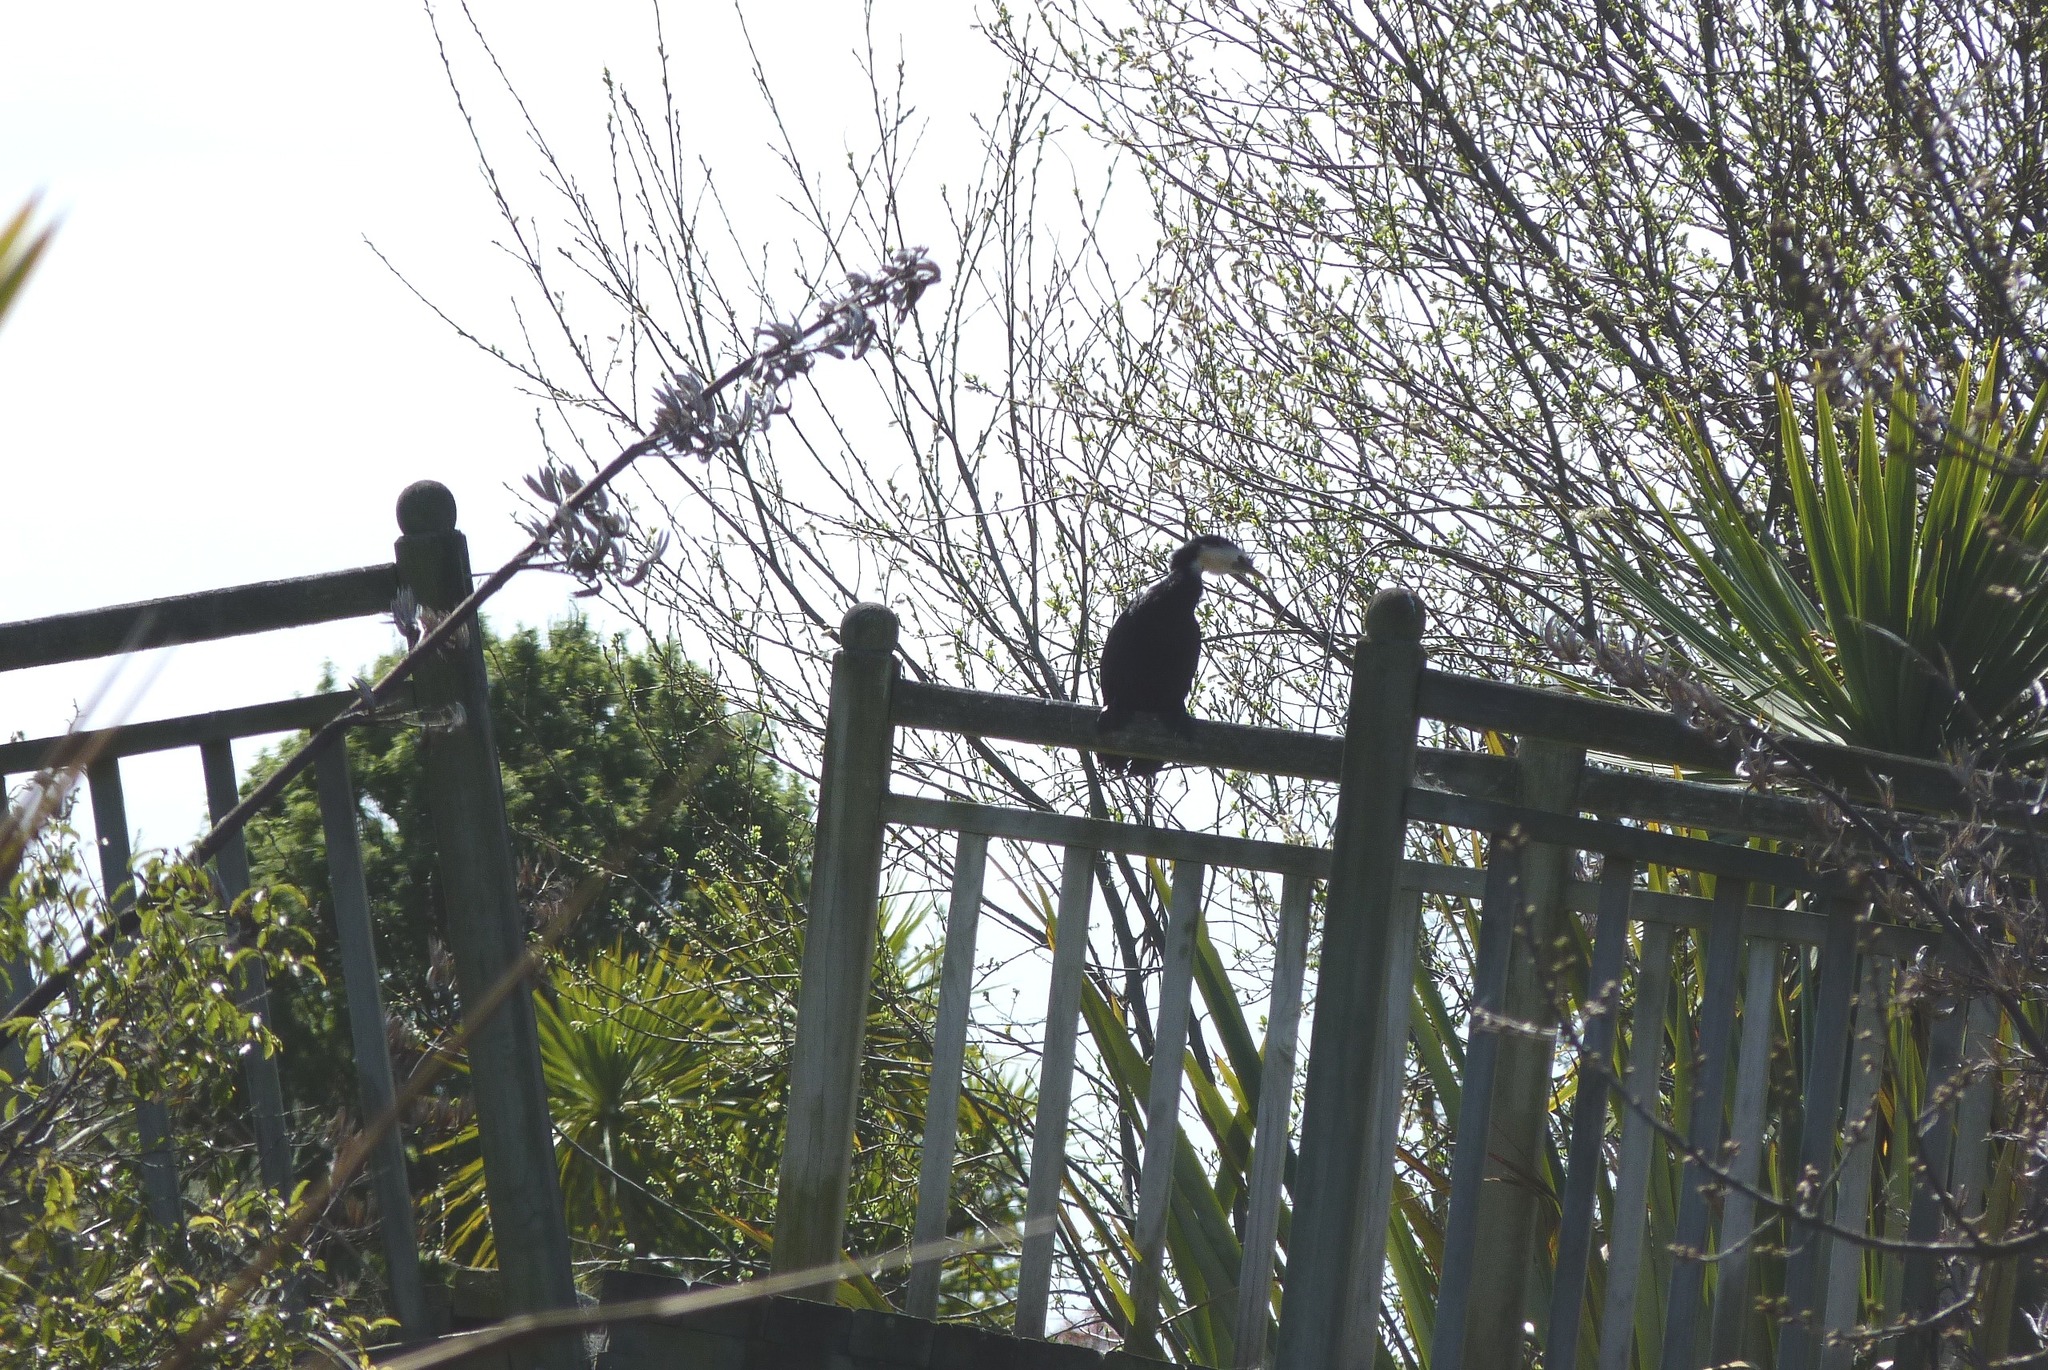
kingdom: Animalia
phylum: Chordata
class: Aves
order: Suliformes
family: Phalacrocoracidae
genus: Microcarbo
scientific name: Microcarbo melanoleucos
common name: Little pied cormorant
